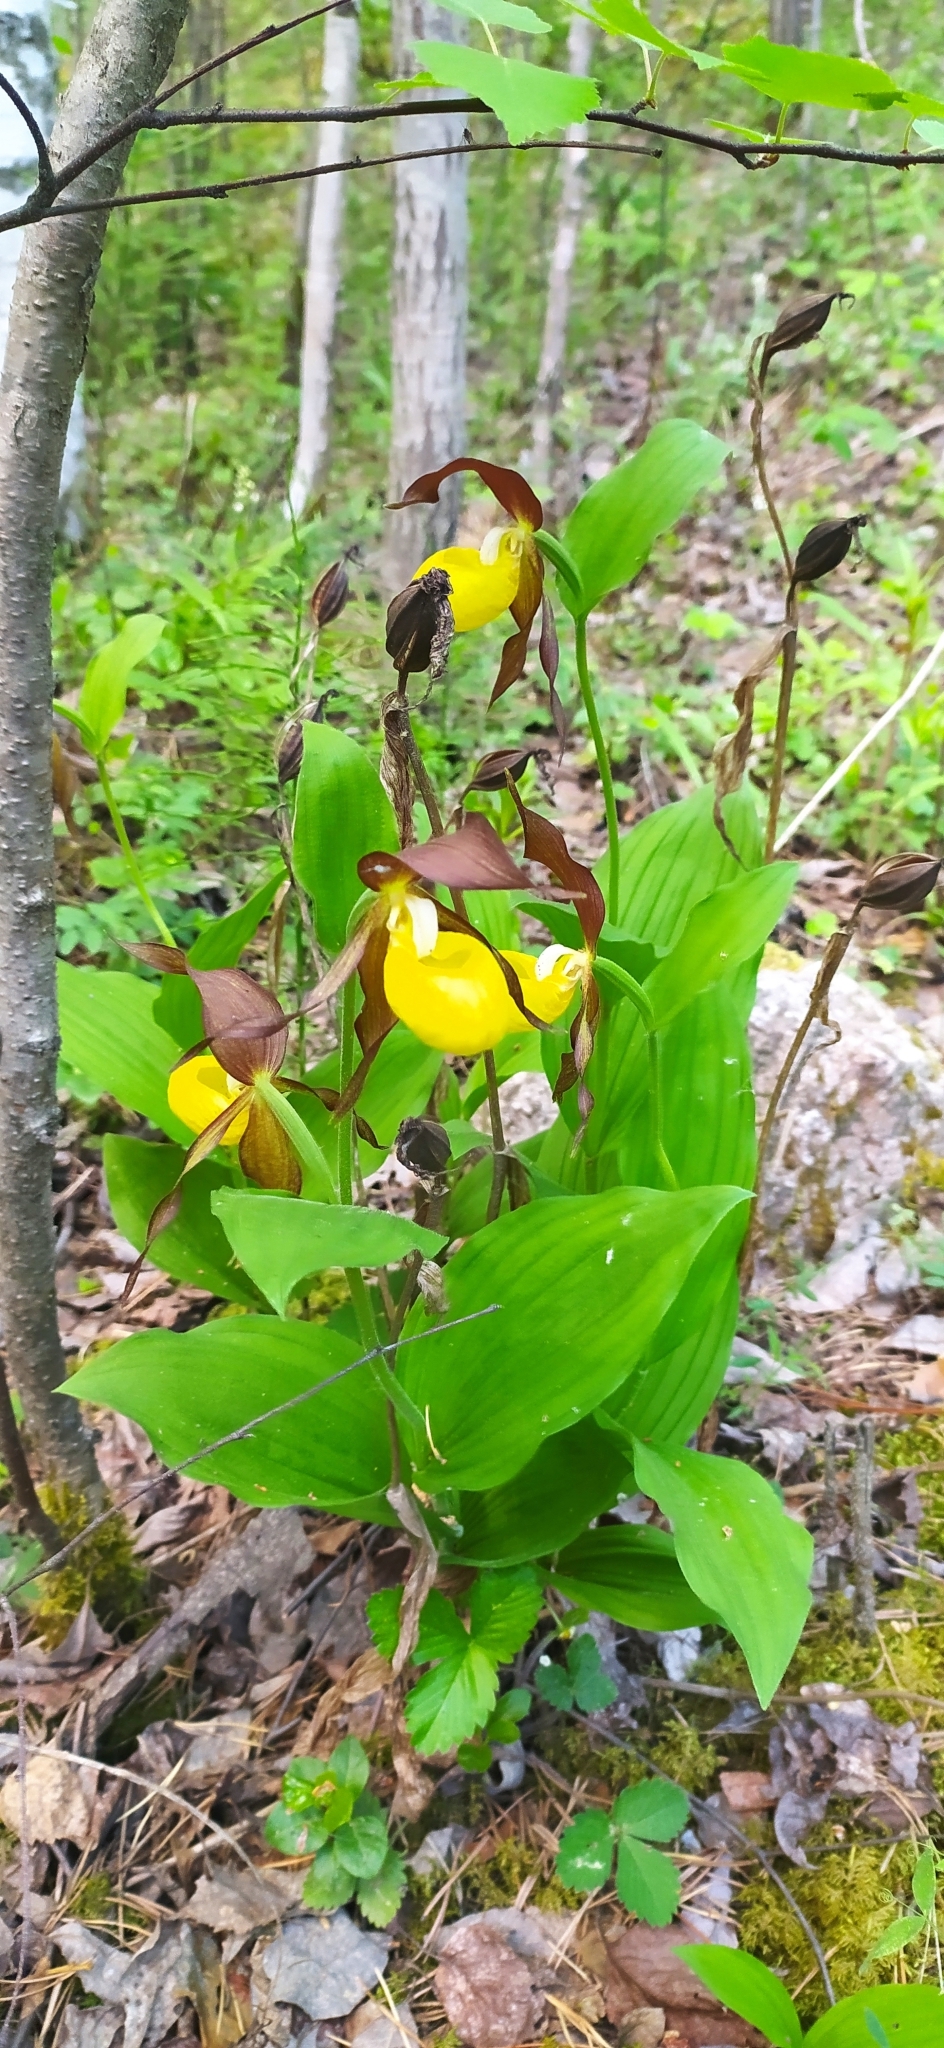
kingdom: Plantae
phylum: Tracheophyta
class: Liliopsida
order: Asparagales
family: Orchidaceae
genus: Cypripedium
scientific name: Cypripedium calceolus
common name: Lady's-slipper
